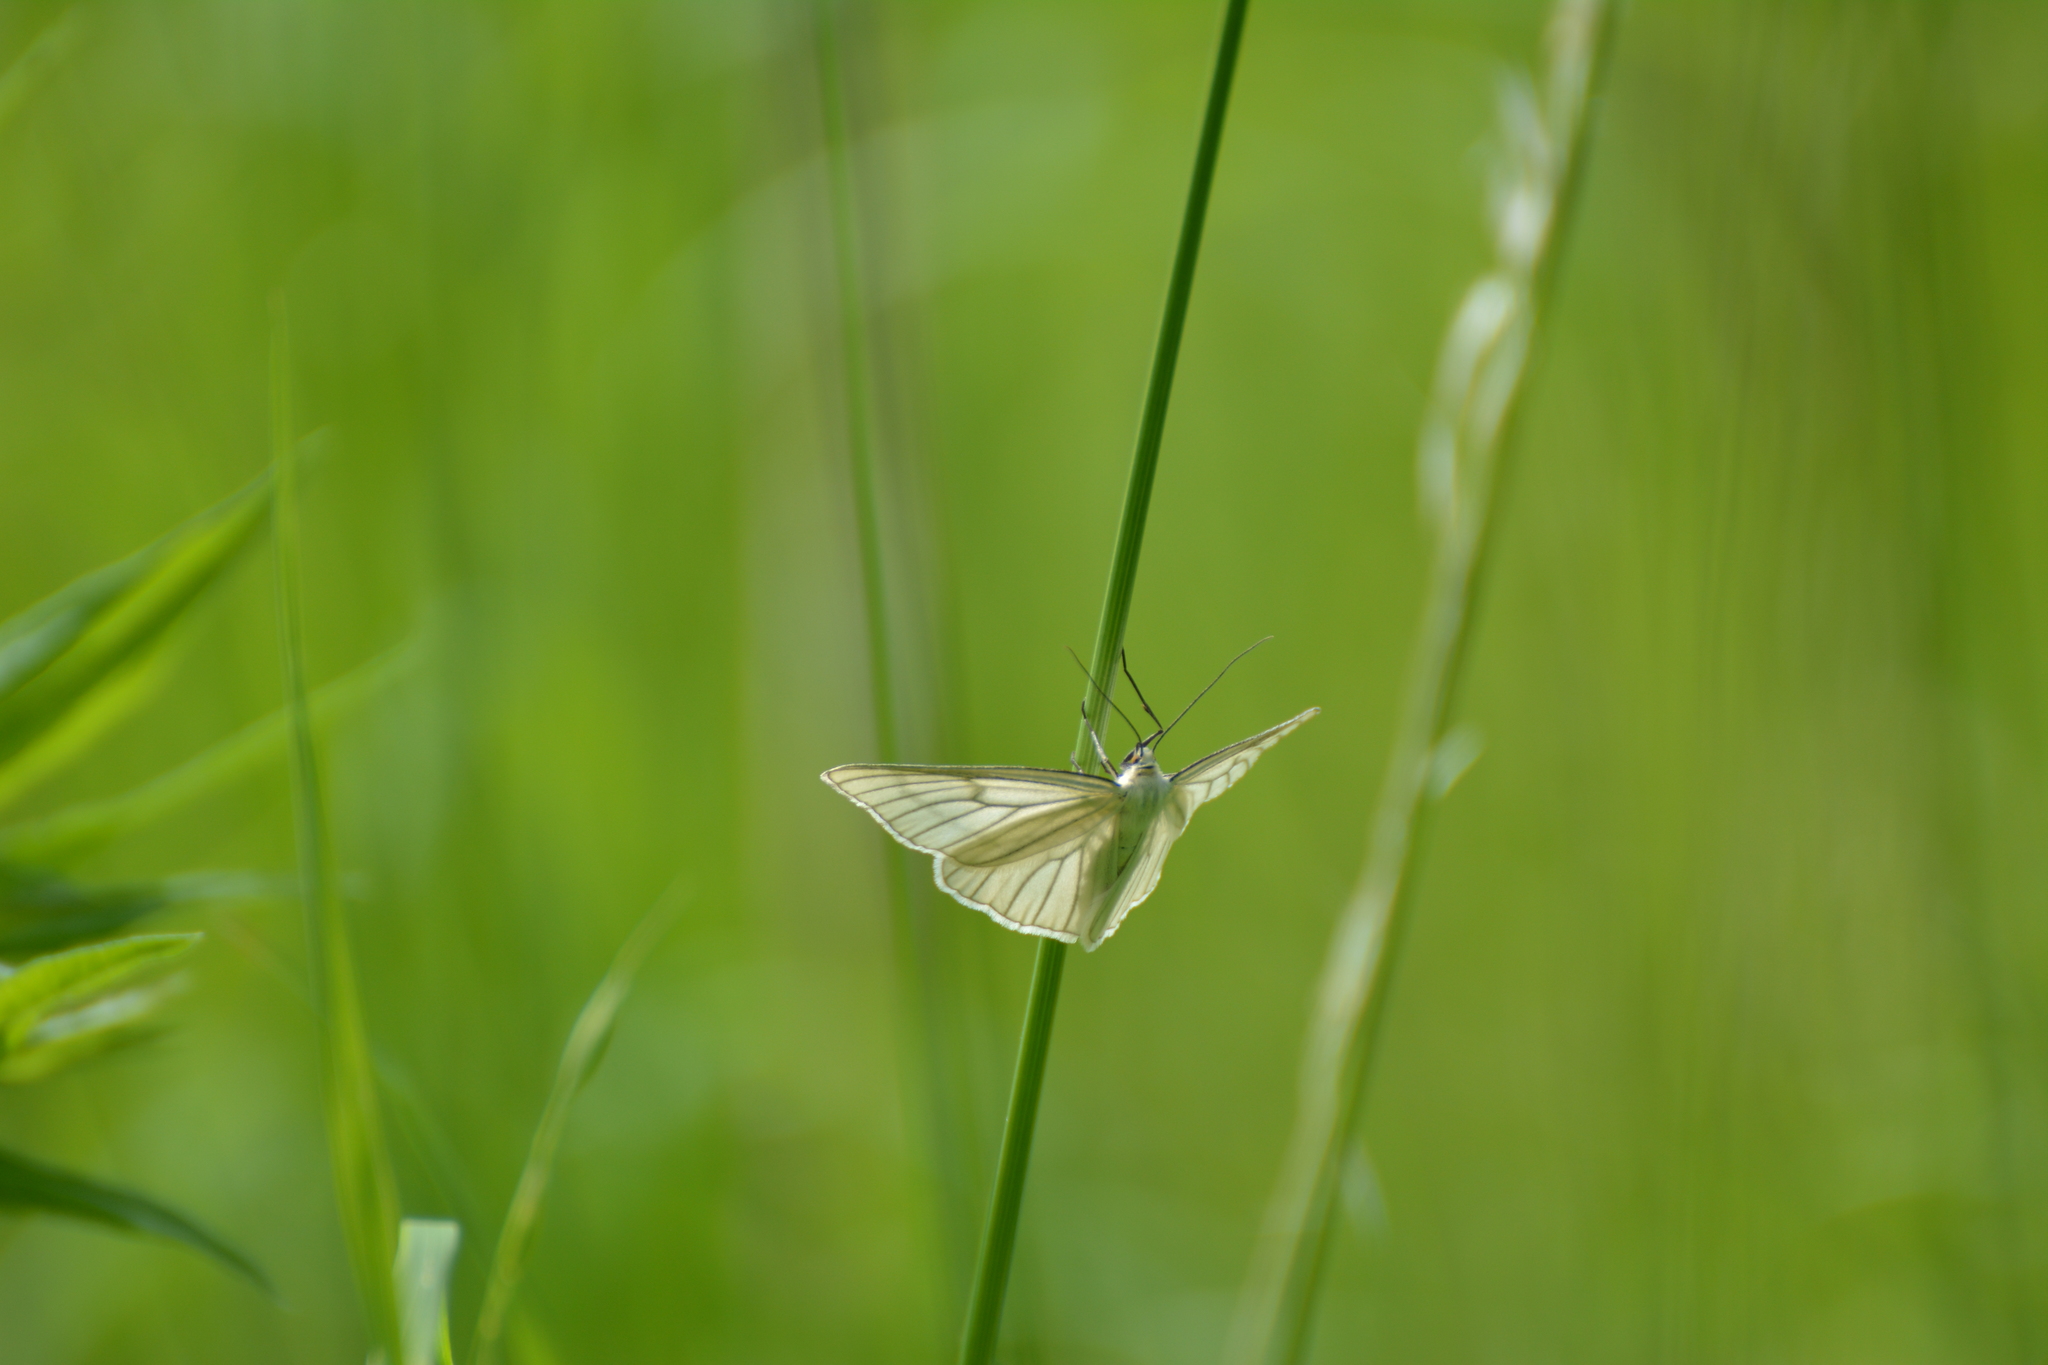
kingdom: Animalia
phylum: Arthropoda
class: Insecta
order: Lepidoptera
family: Geometridae
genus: Siona
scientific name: Siona lineata
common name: Black-veined moth
